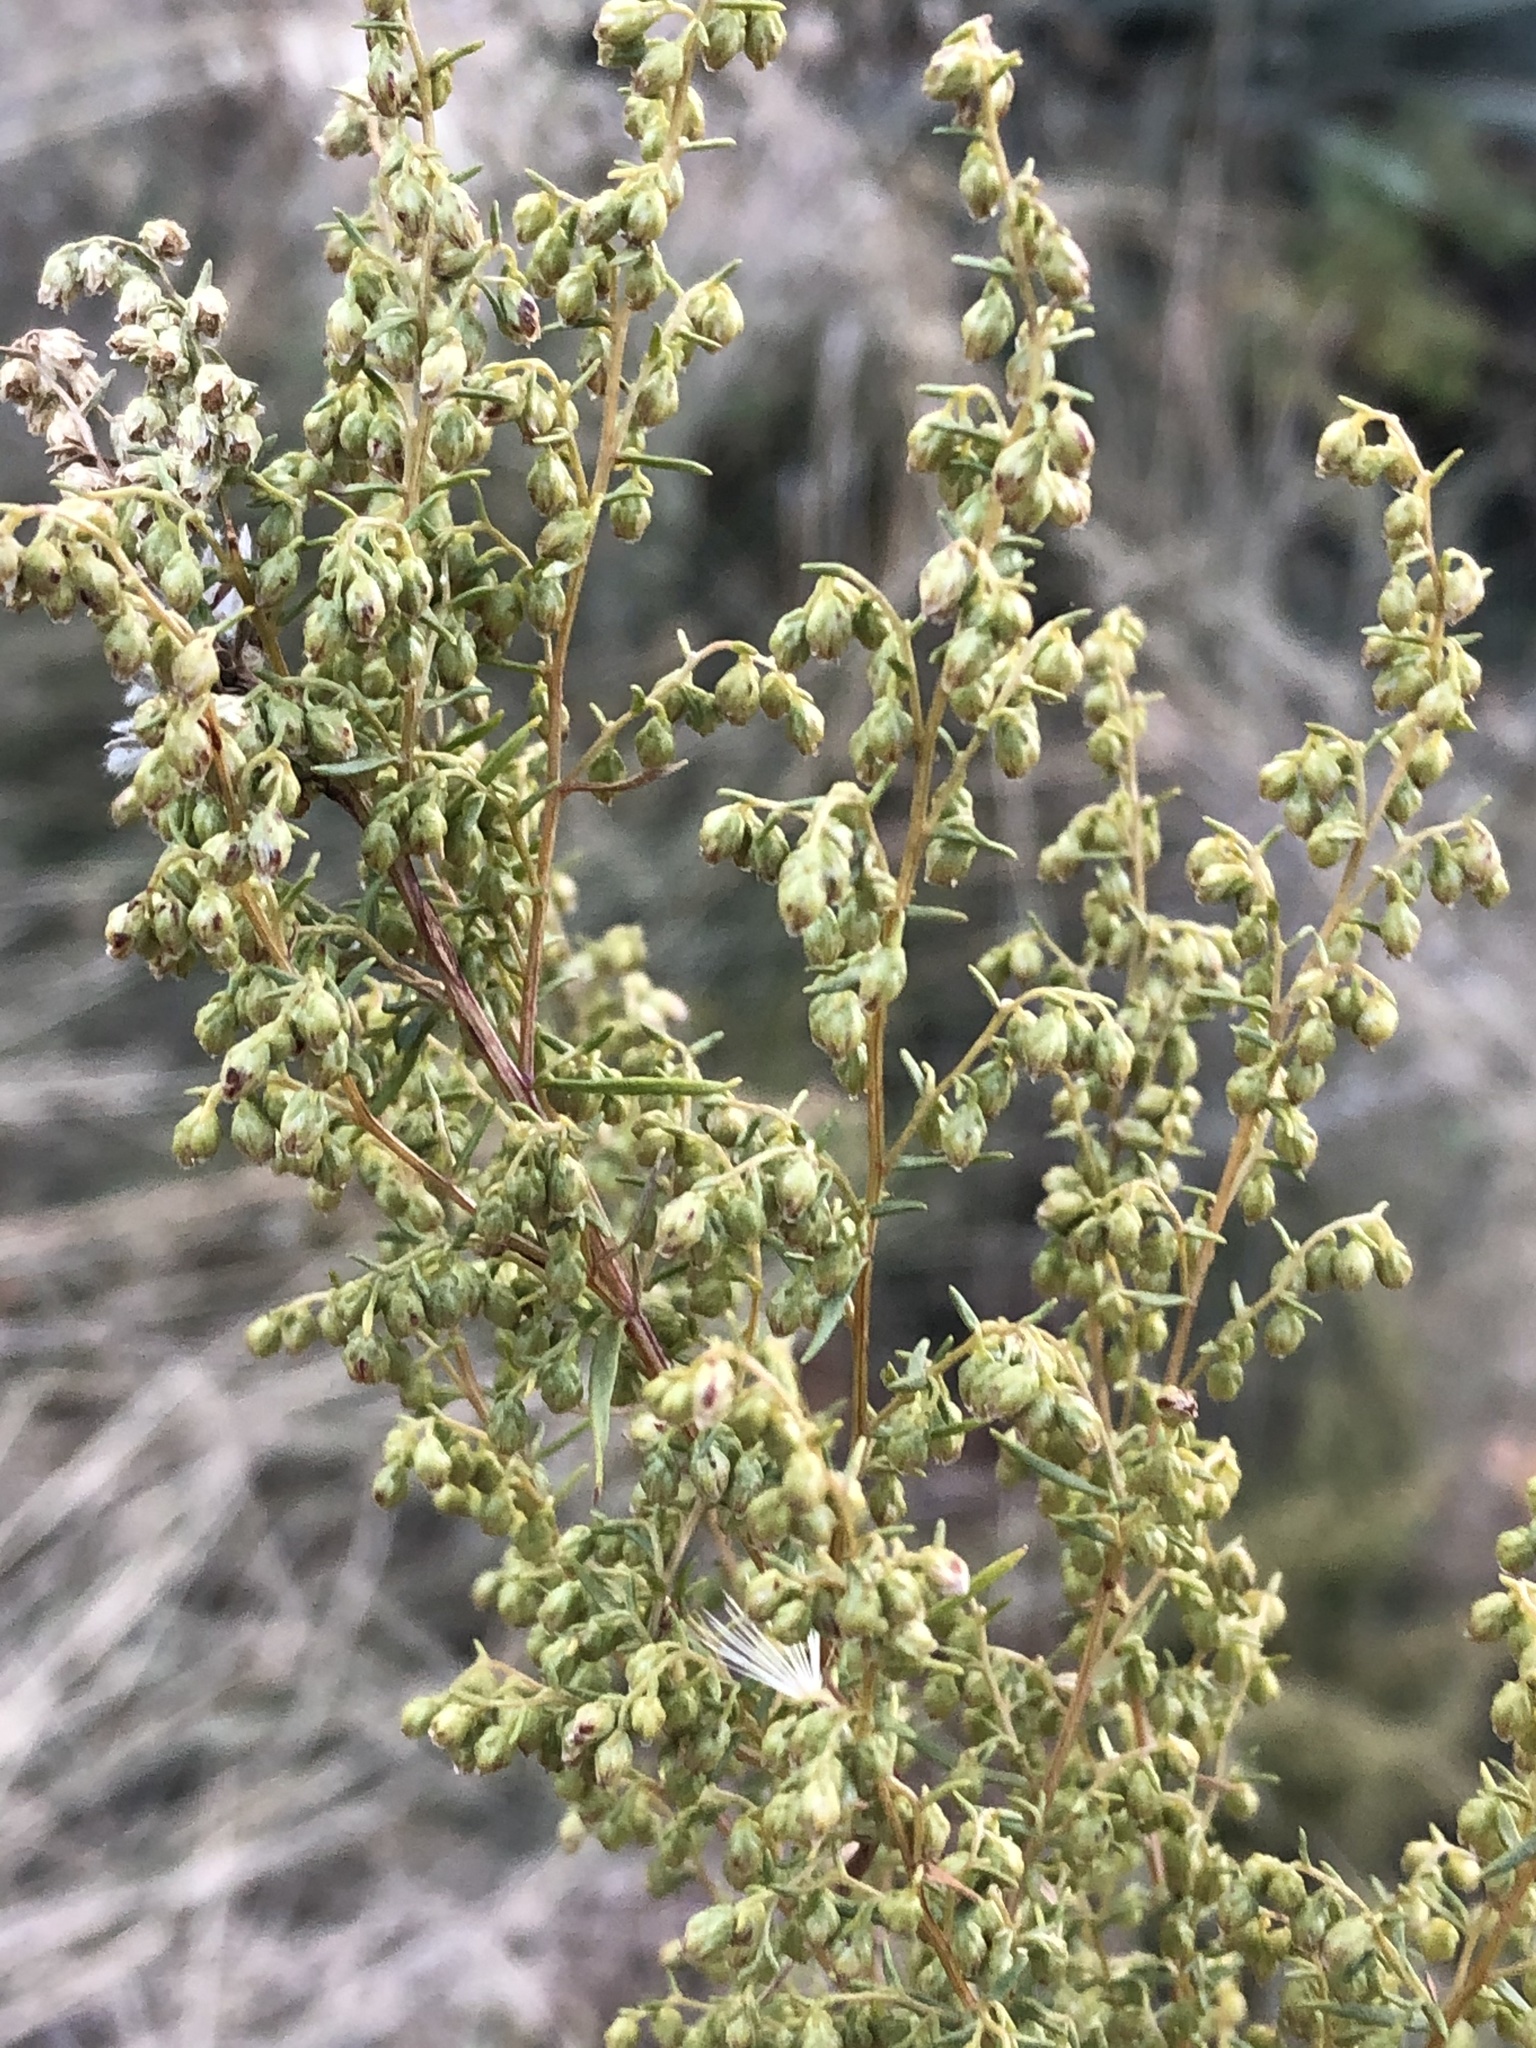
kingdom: Plantae
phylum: Tracheophyta
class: Magnoliopsida
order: Asterales
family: Asteraceae
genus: Artemisia
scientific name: Artemisia dracunculus
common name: Tarragon
